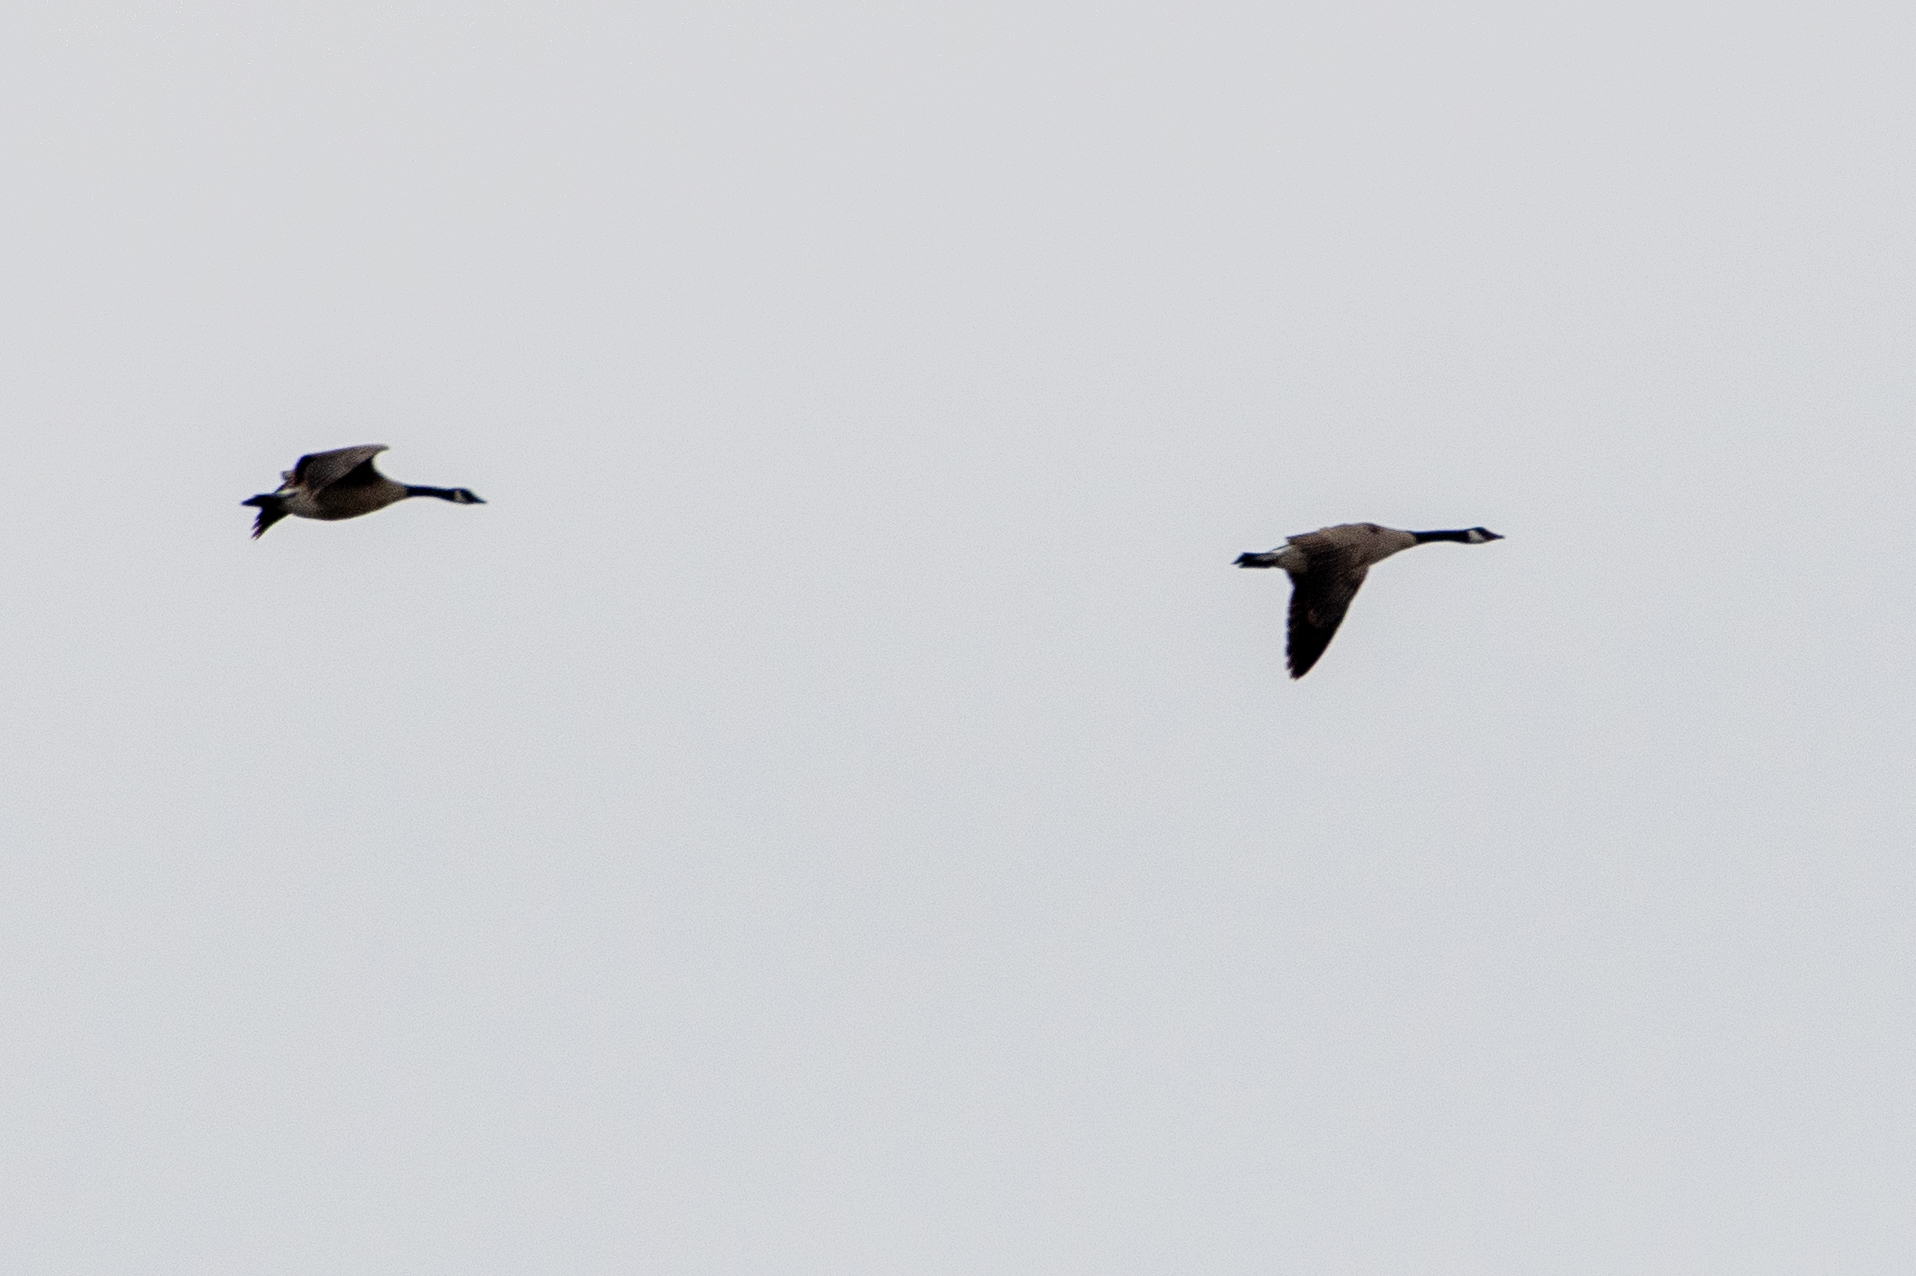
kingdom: Animalia
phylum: Chordata
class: Aves
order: Anseriformes
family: Anatidae
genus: Branta
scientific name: Branta canadensis
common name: Canada goose
